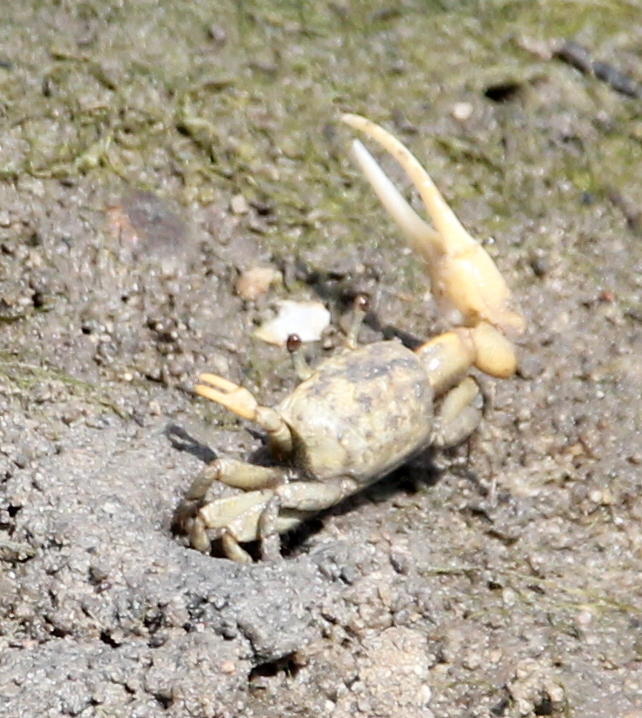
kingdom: Animalia
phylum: Arthropoda
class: Malacostraca
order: Decapoda
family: Ocypodidae
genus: Leptuca
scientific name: Leptuca crenulata
